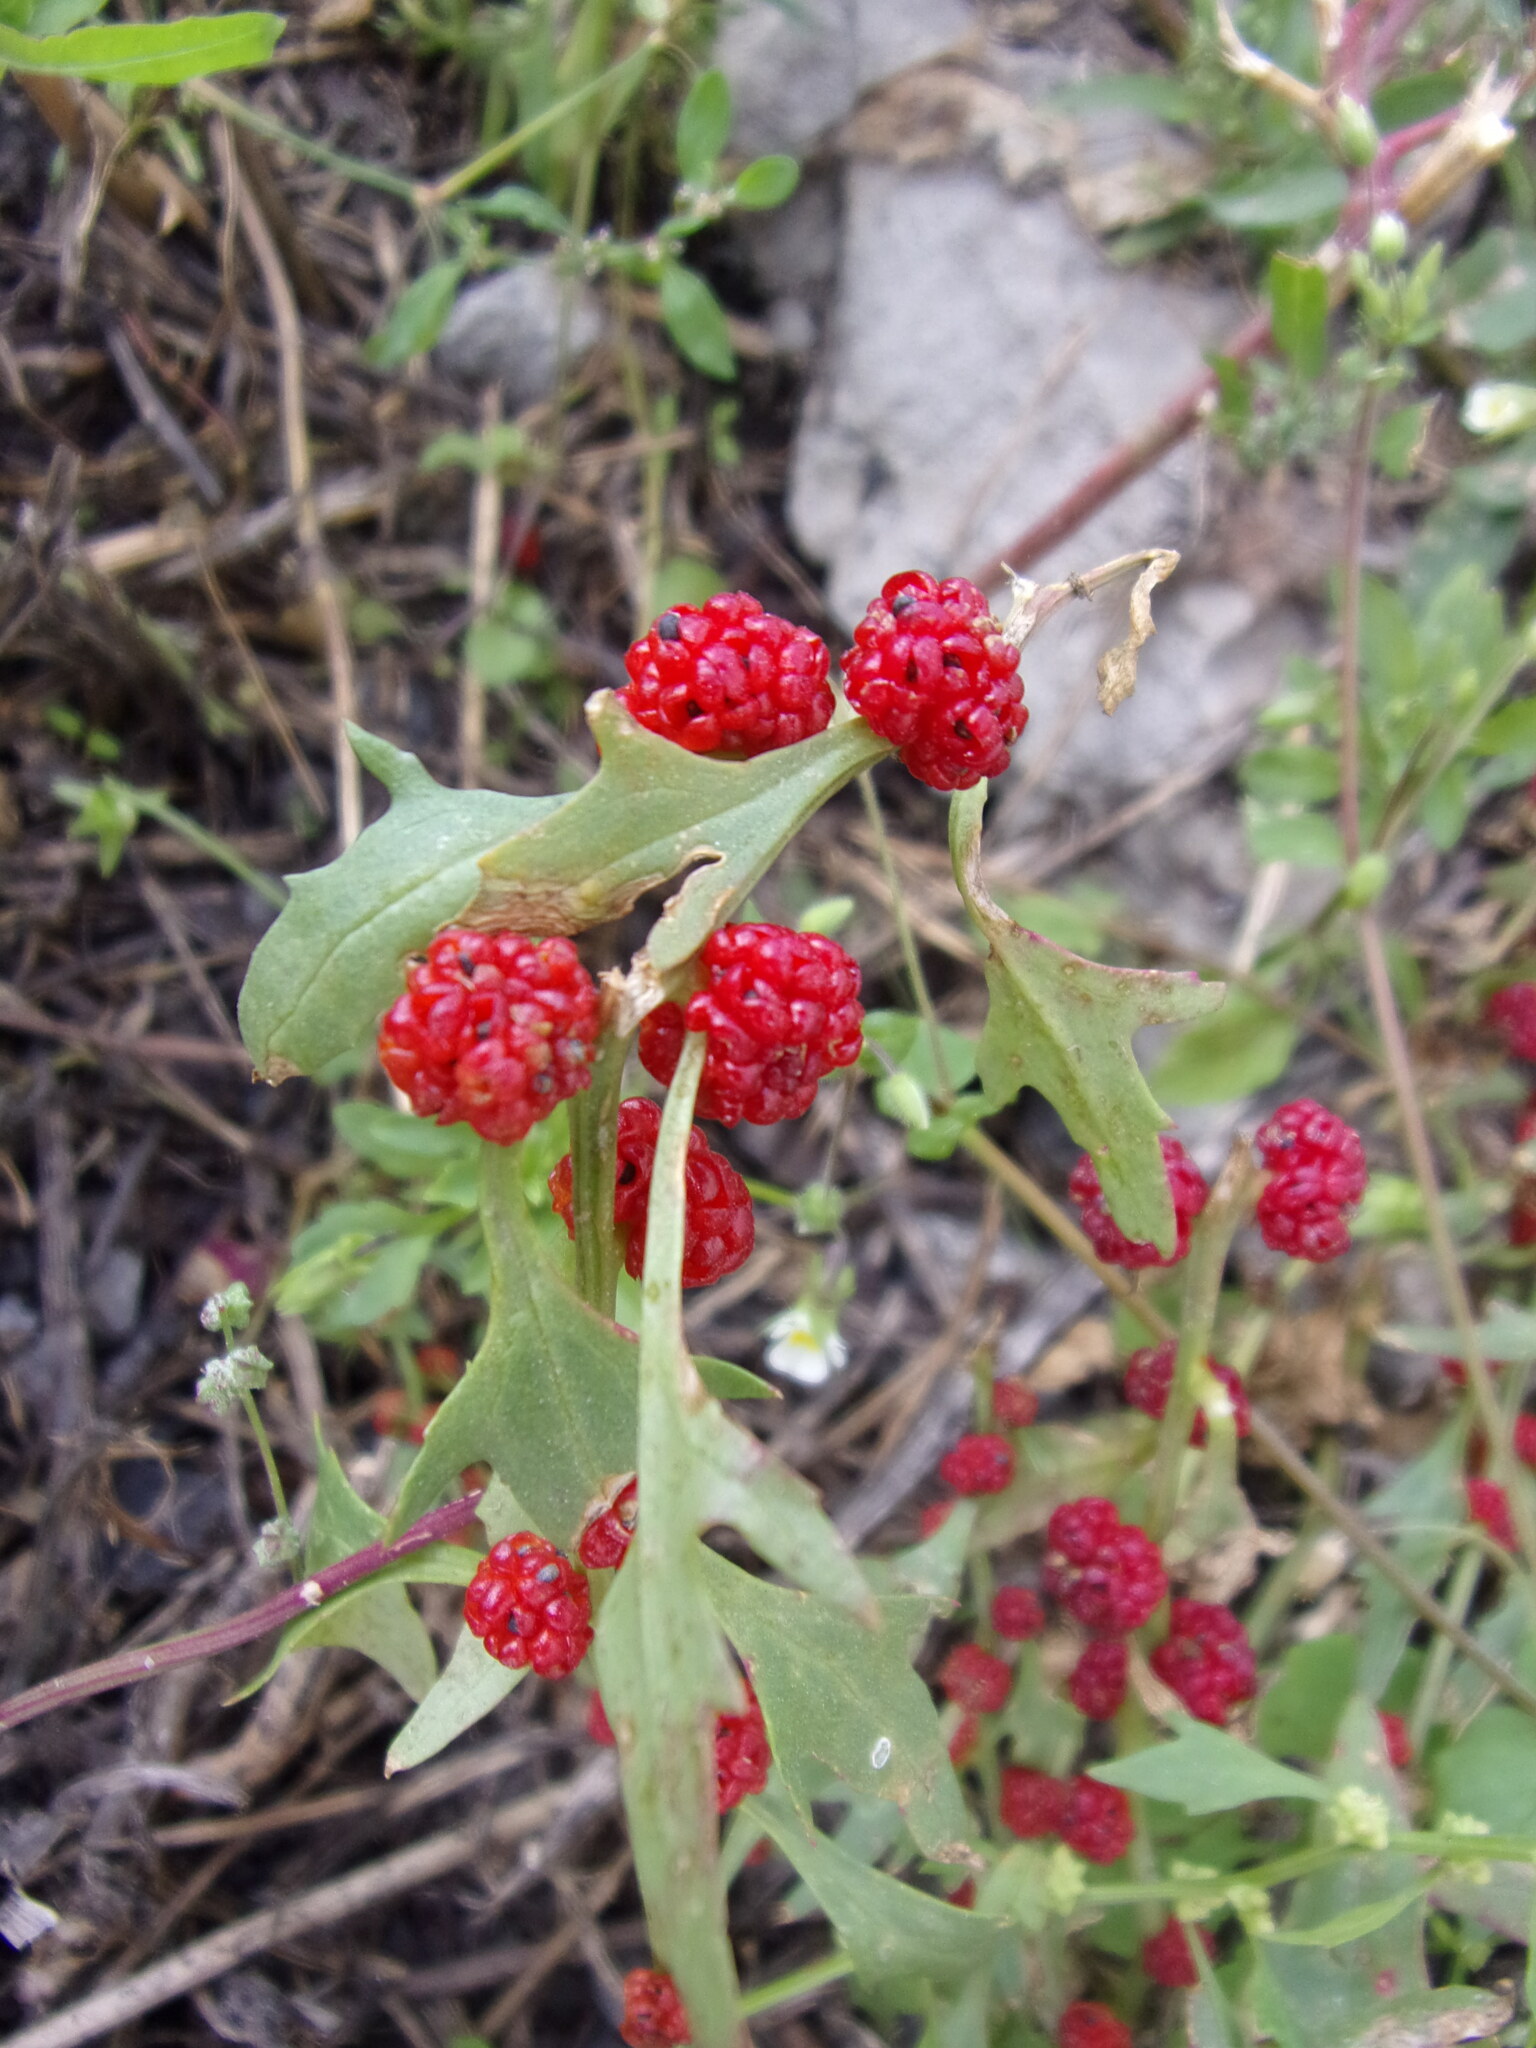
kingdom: Plantae
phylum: Tracheophyta
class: Magnoliopsida
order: Caryophyllales
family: Amaranthaceae
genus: Blitum
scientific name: Blitum virgatum
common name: Strawberry goosefoot
